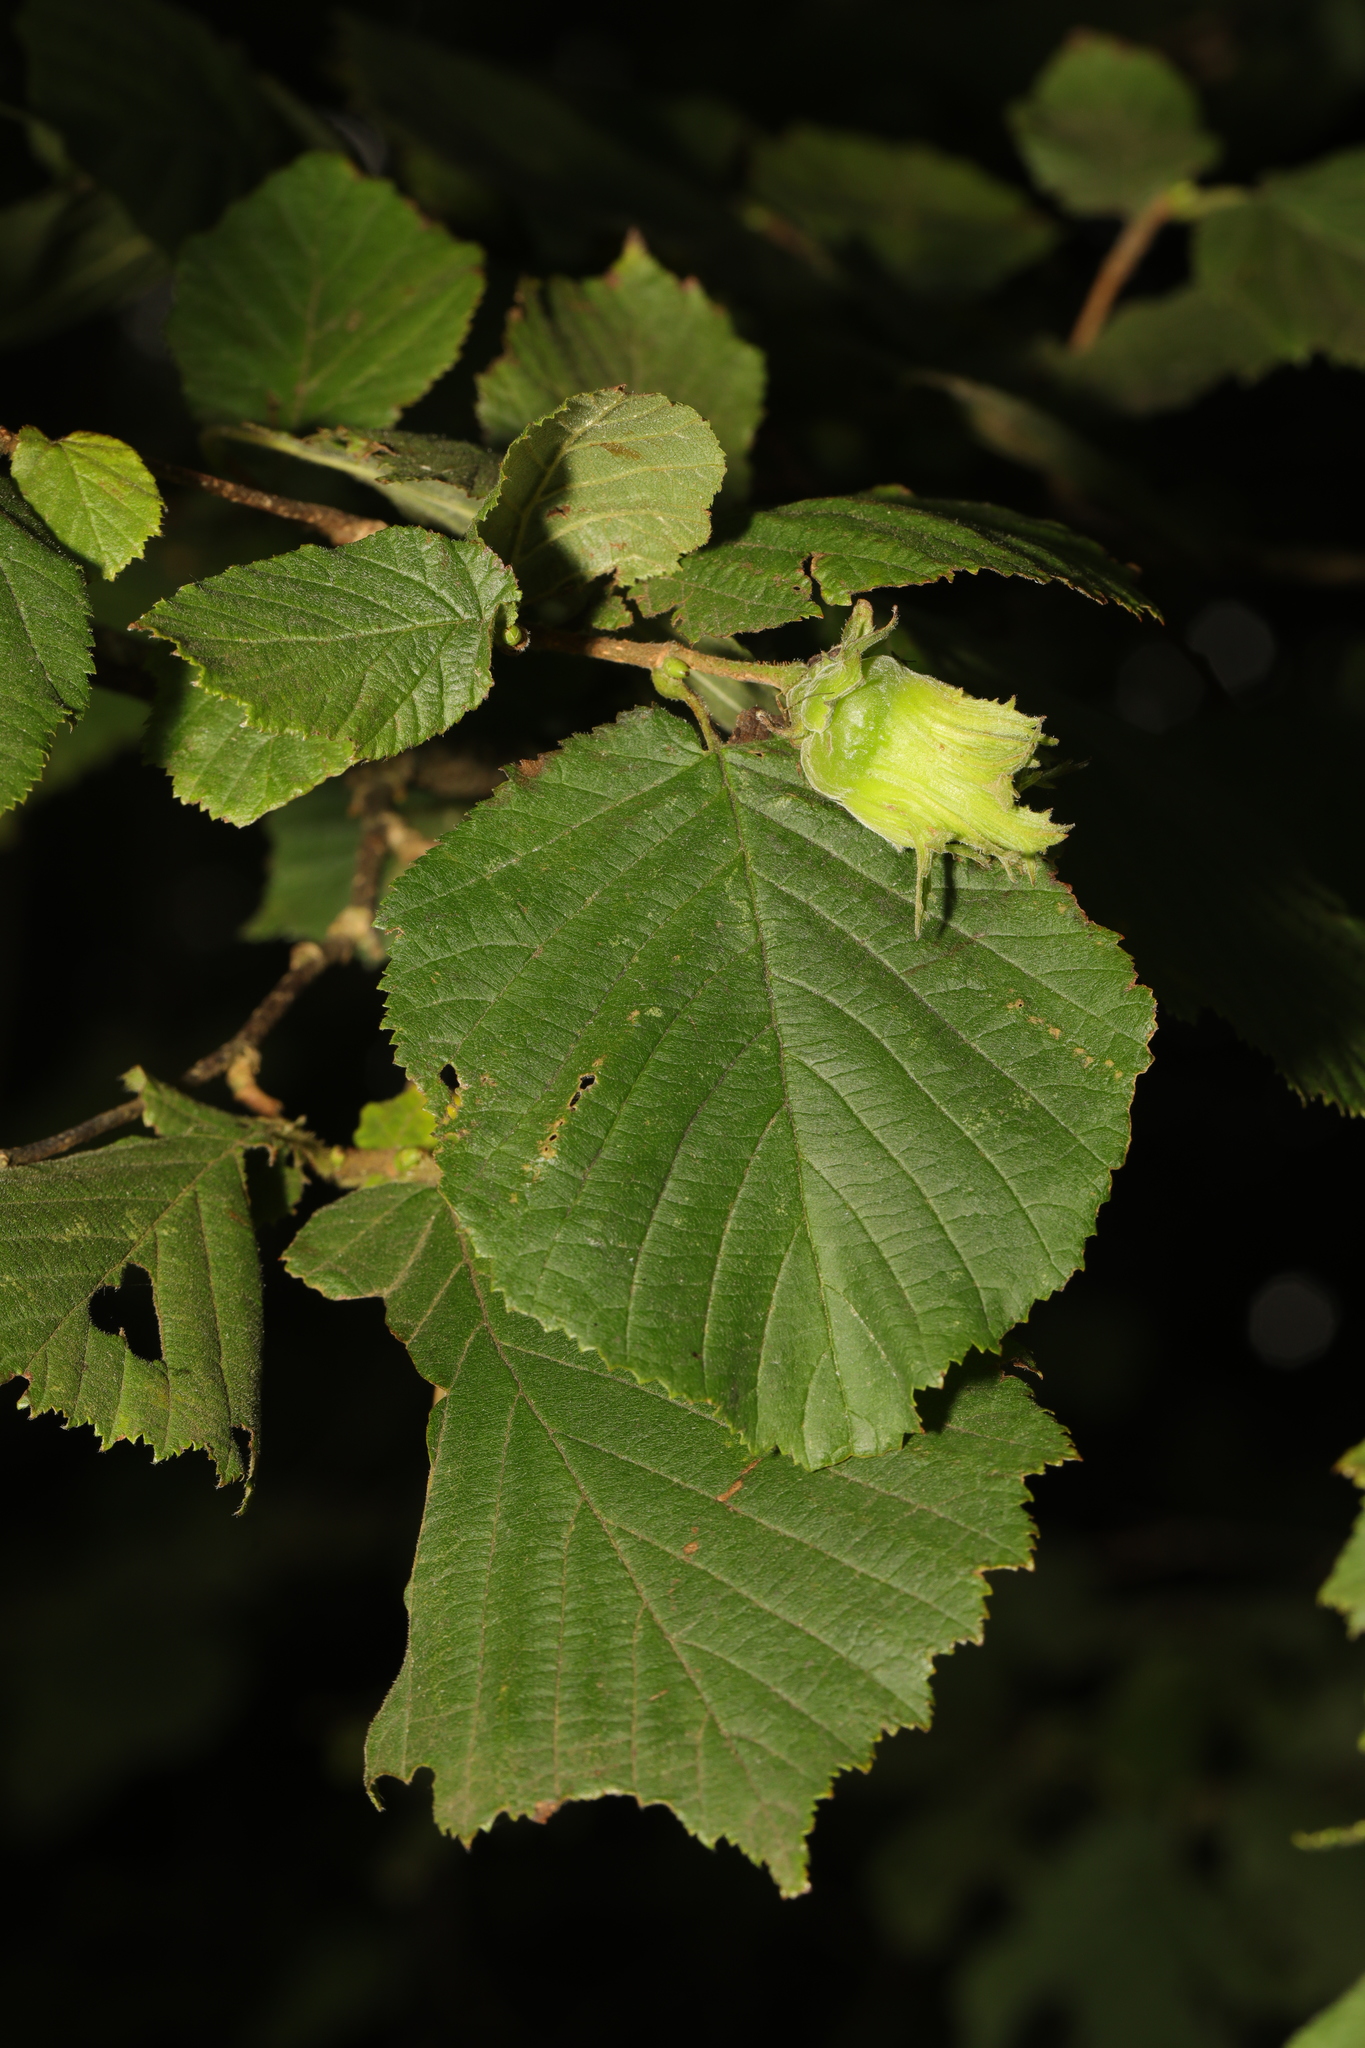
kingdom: Plantae
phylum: Tracheophyta
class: Magnoliopsida
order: Fagales
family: Betulaceae
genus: Corylus
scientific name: Corylus avellana
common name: European hazel
